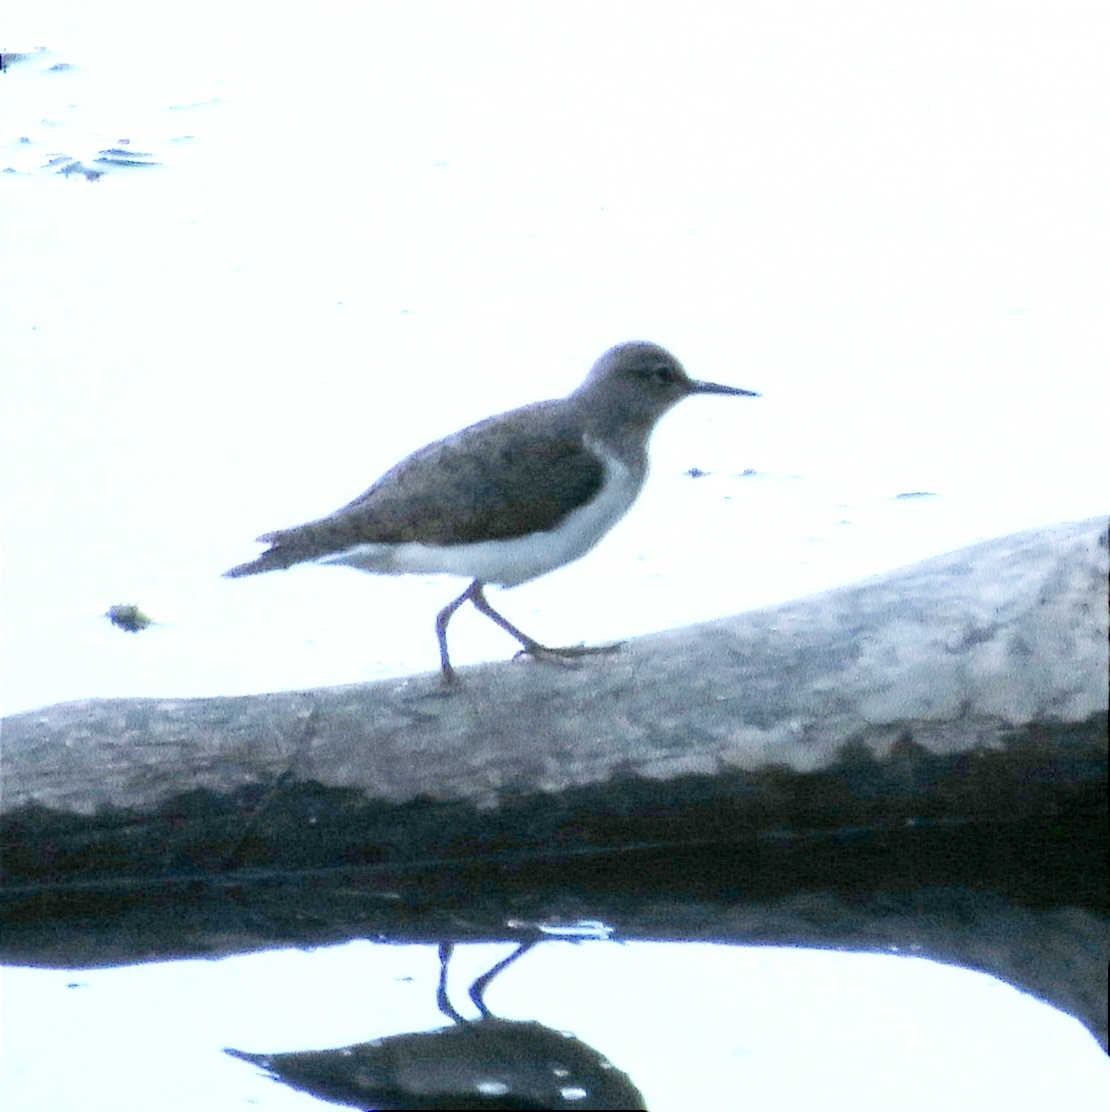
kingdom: Animalia
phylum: Chordata
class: Aves
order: Charadriiformes
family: Scolopacidae
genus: Actitis
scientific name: Actitis hypoleucos
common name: Common sandpiper
